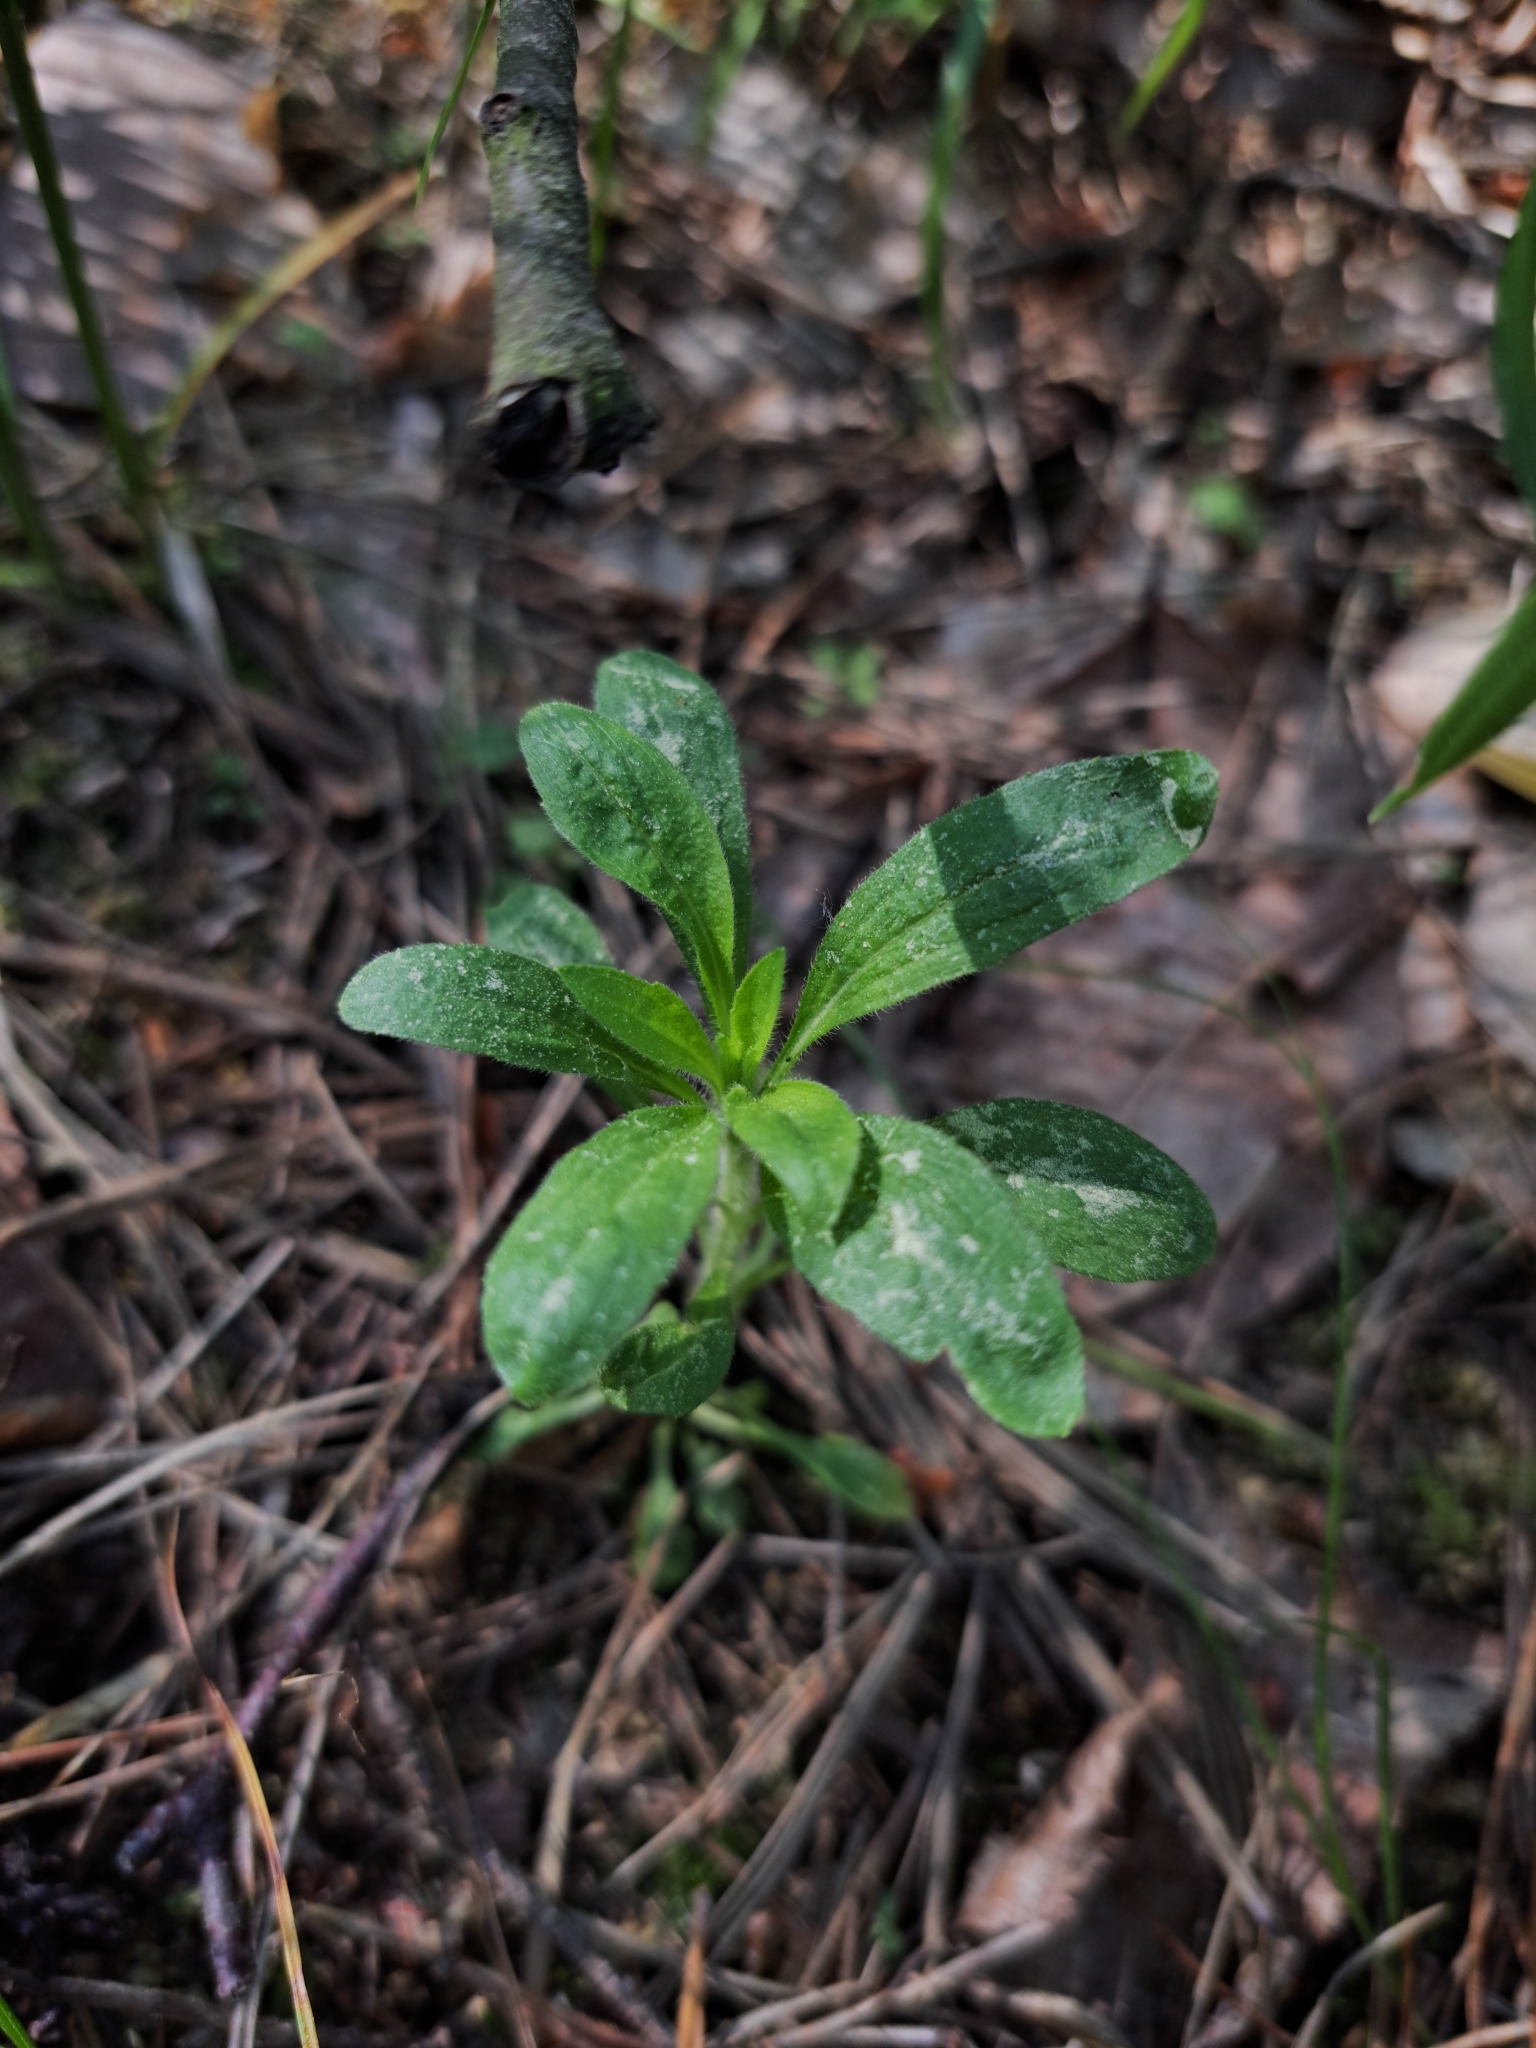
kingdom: Plantae
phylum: Tracheophyta
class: Magnoliopsida
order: Asterales
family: Asteraceae
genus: Erigeron
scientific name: Erigeron canadensis
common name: Canadian fleabane
